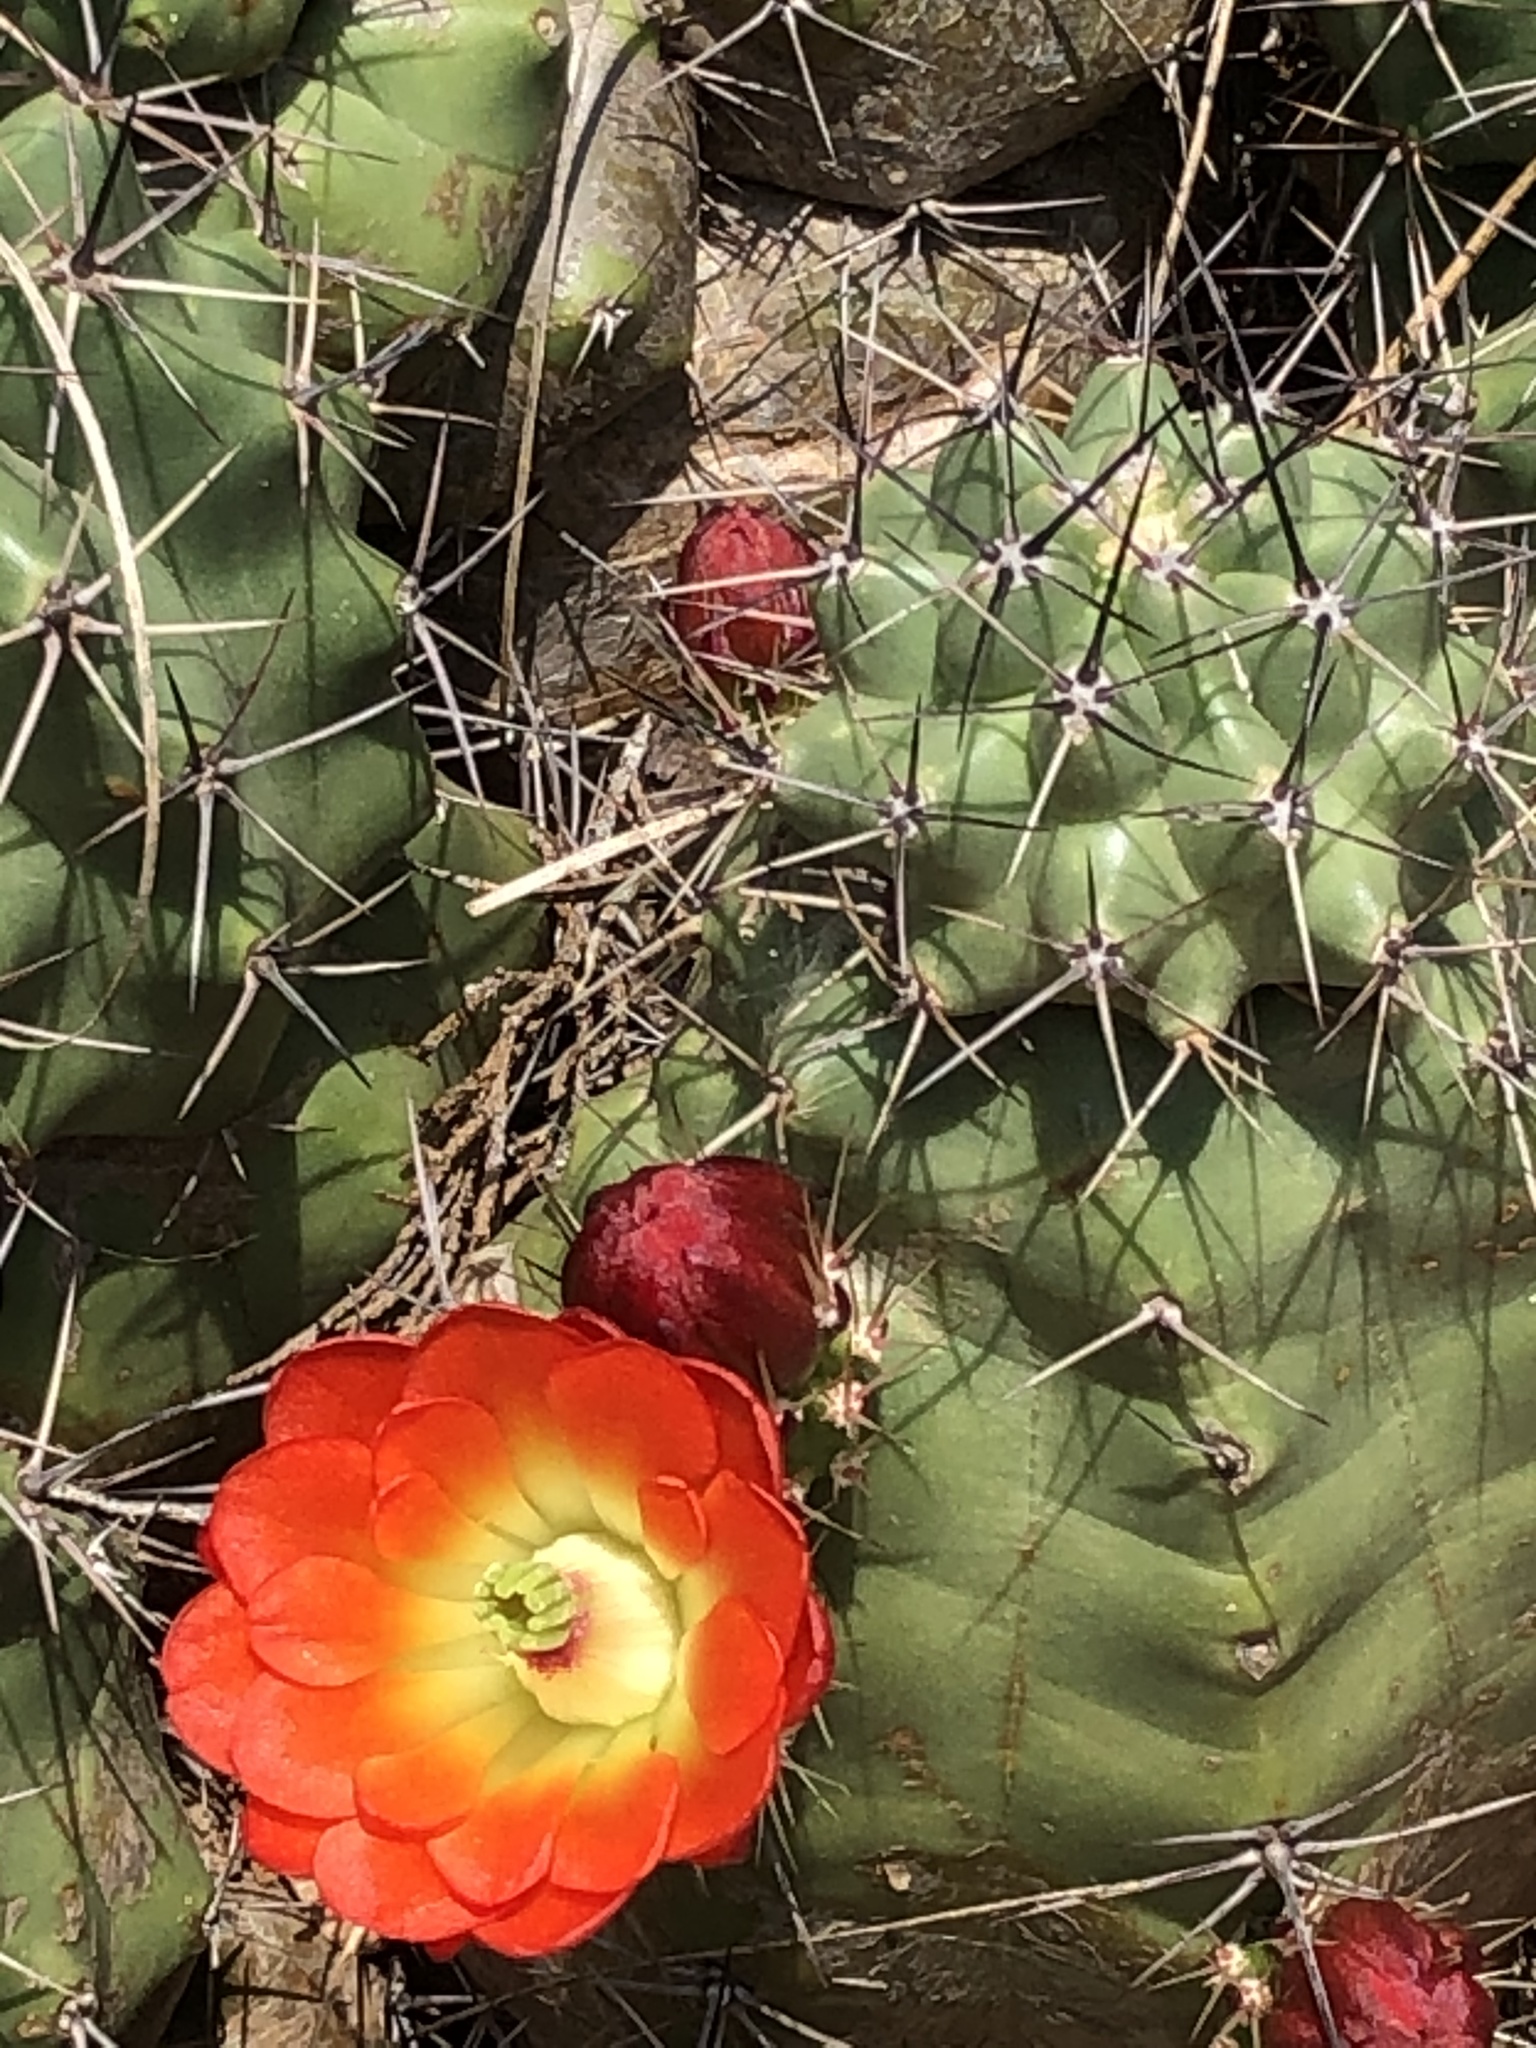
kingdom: Plantae
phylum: Tracheophyta
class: Magnoliopsida
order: Caryophyllales
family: Cactaceae
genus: Echinocereus
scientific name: Echinocereus coccineus
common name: Scarlet hedgehog cactus
